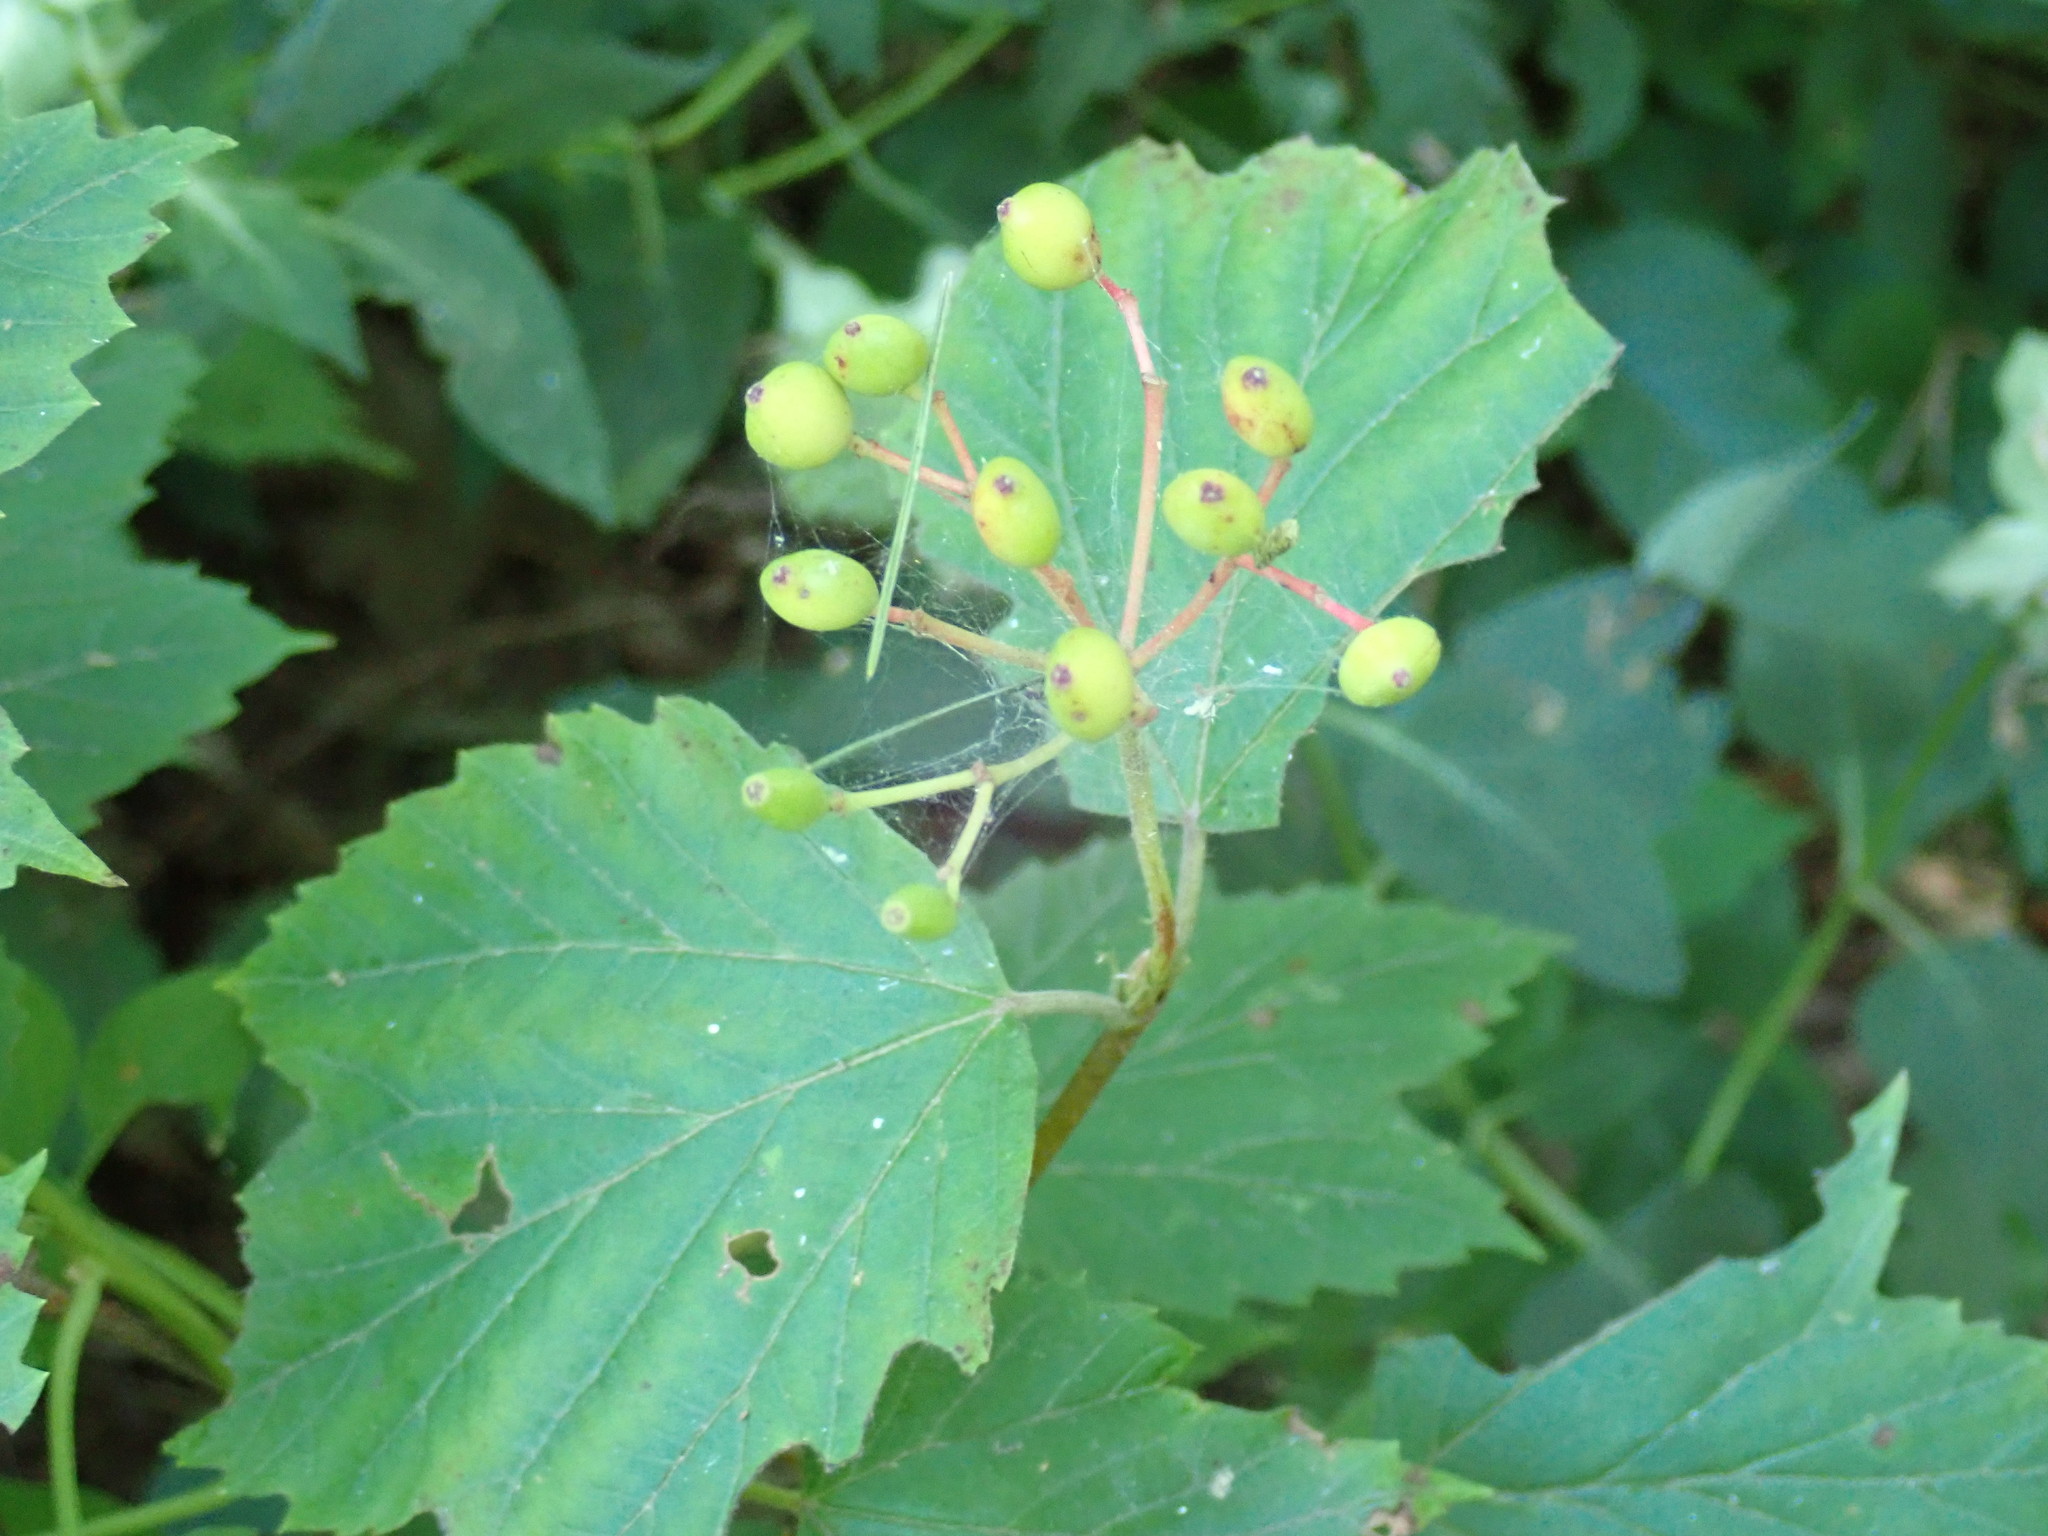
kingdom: Plantae
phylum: Tracheophyta
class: Magnoliopsida
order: Dipsacales
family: Viburnaceae
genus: Viburnum
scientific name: Viburnum acerifolium
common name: Dockmackie
